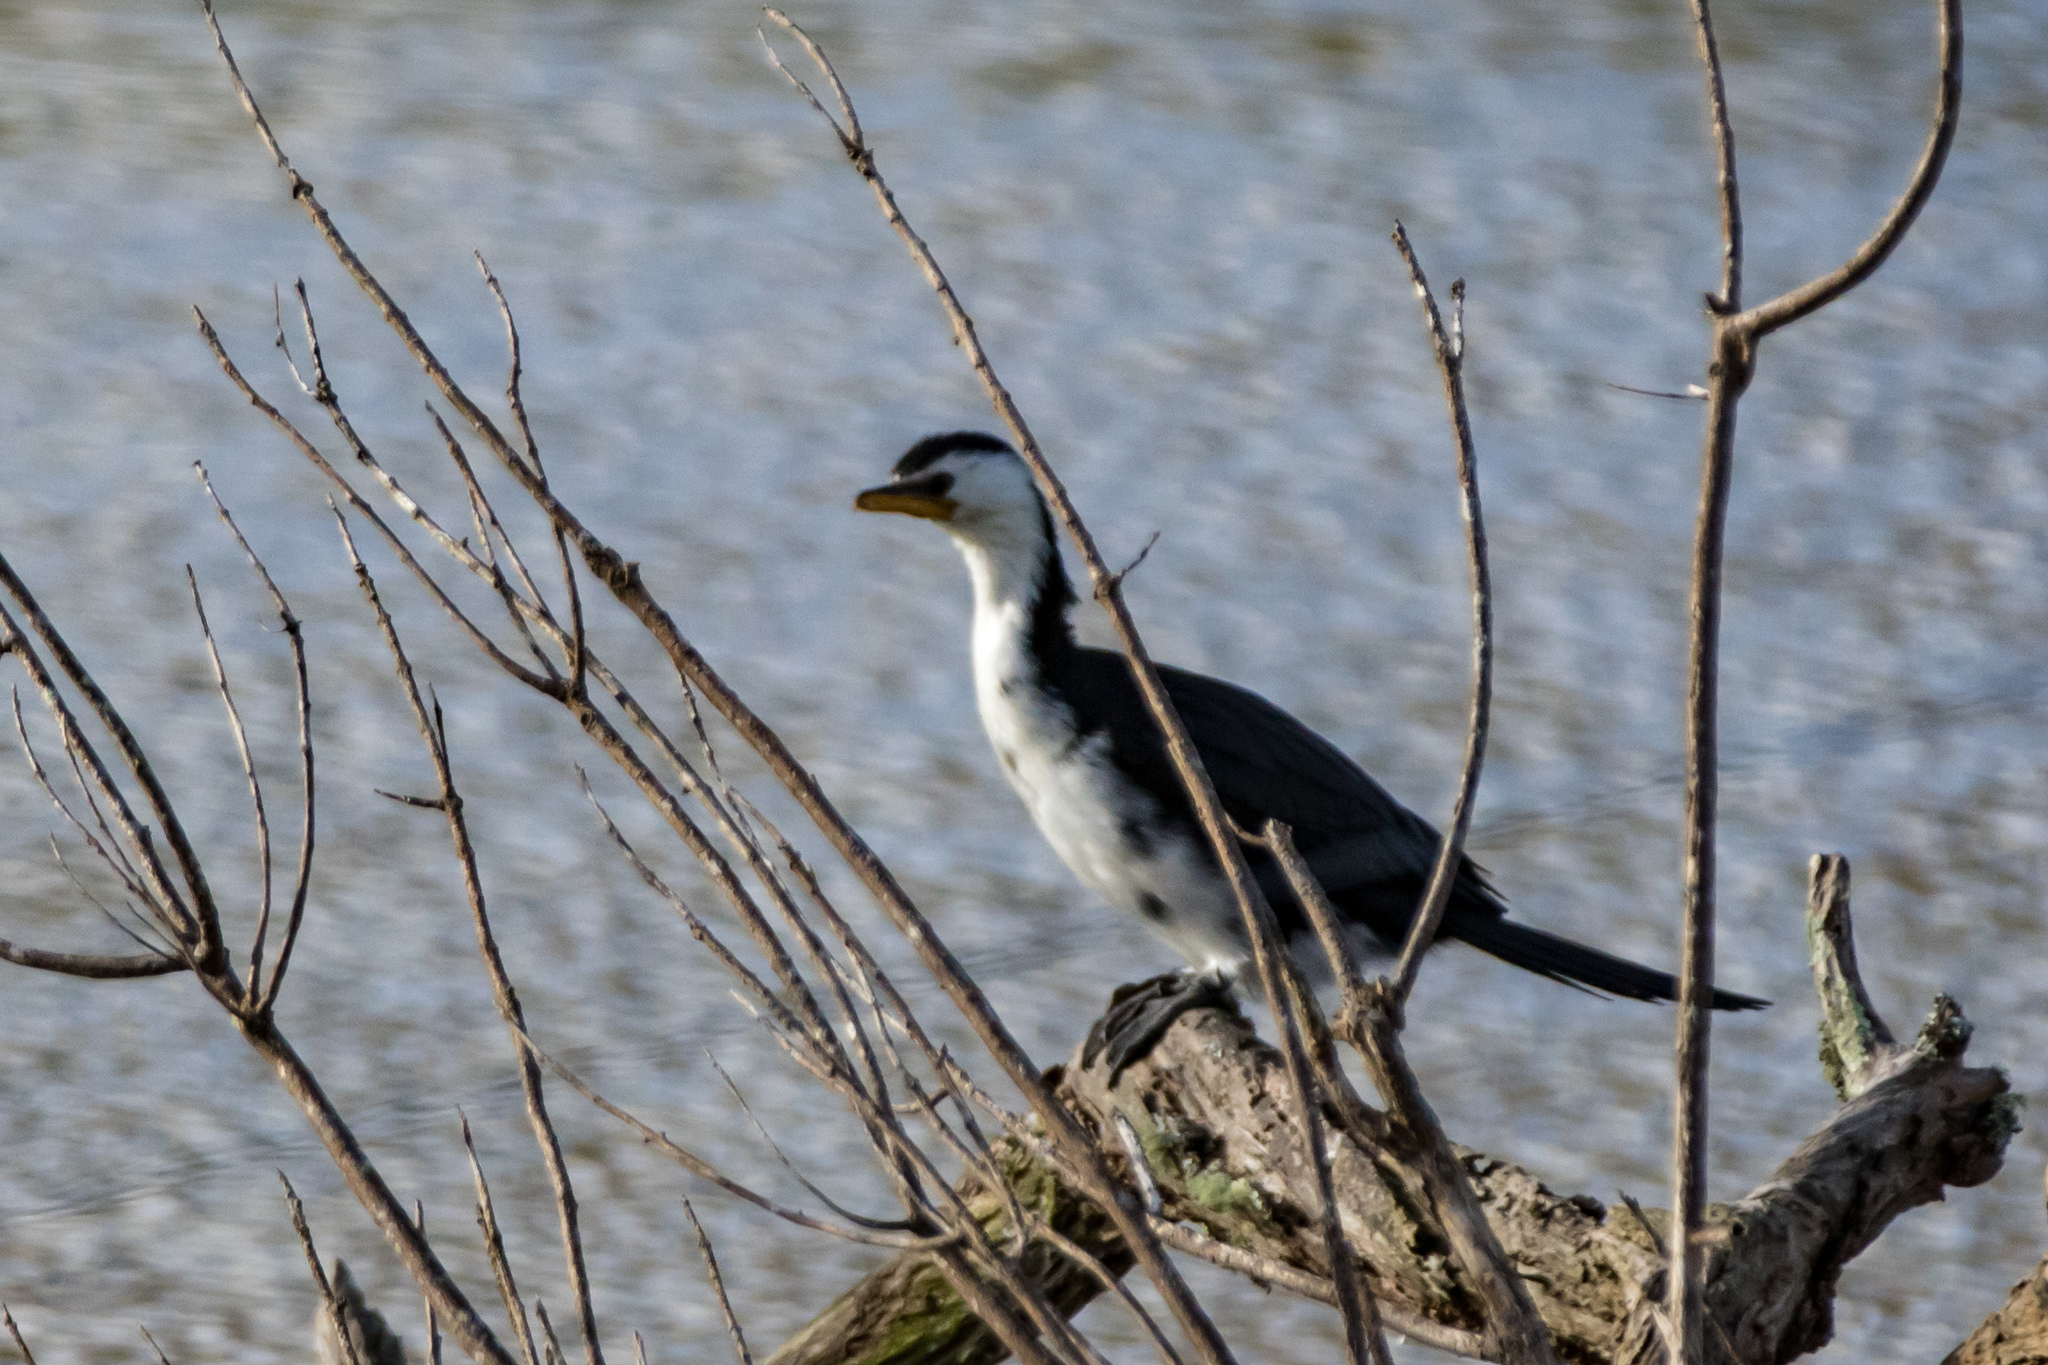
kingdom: Animalia
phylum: Chordata
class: Aves
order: Suliformes
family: Phalacrocoracidae
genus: Microcarbo
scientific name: Microcarbo melanoleucos
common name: Little pied cormorant
